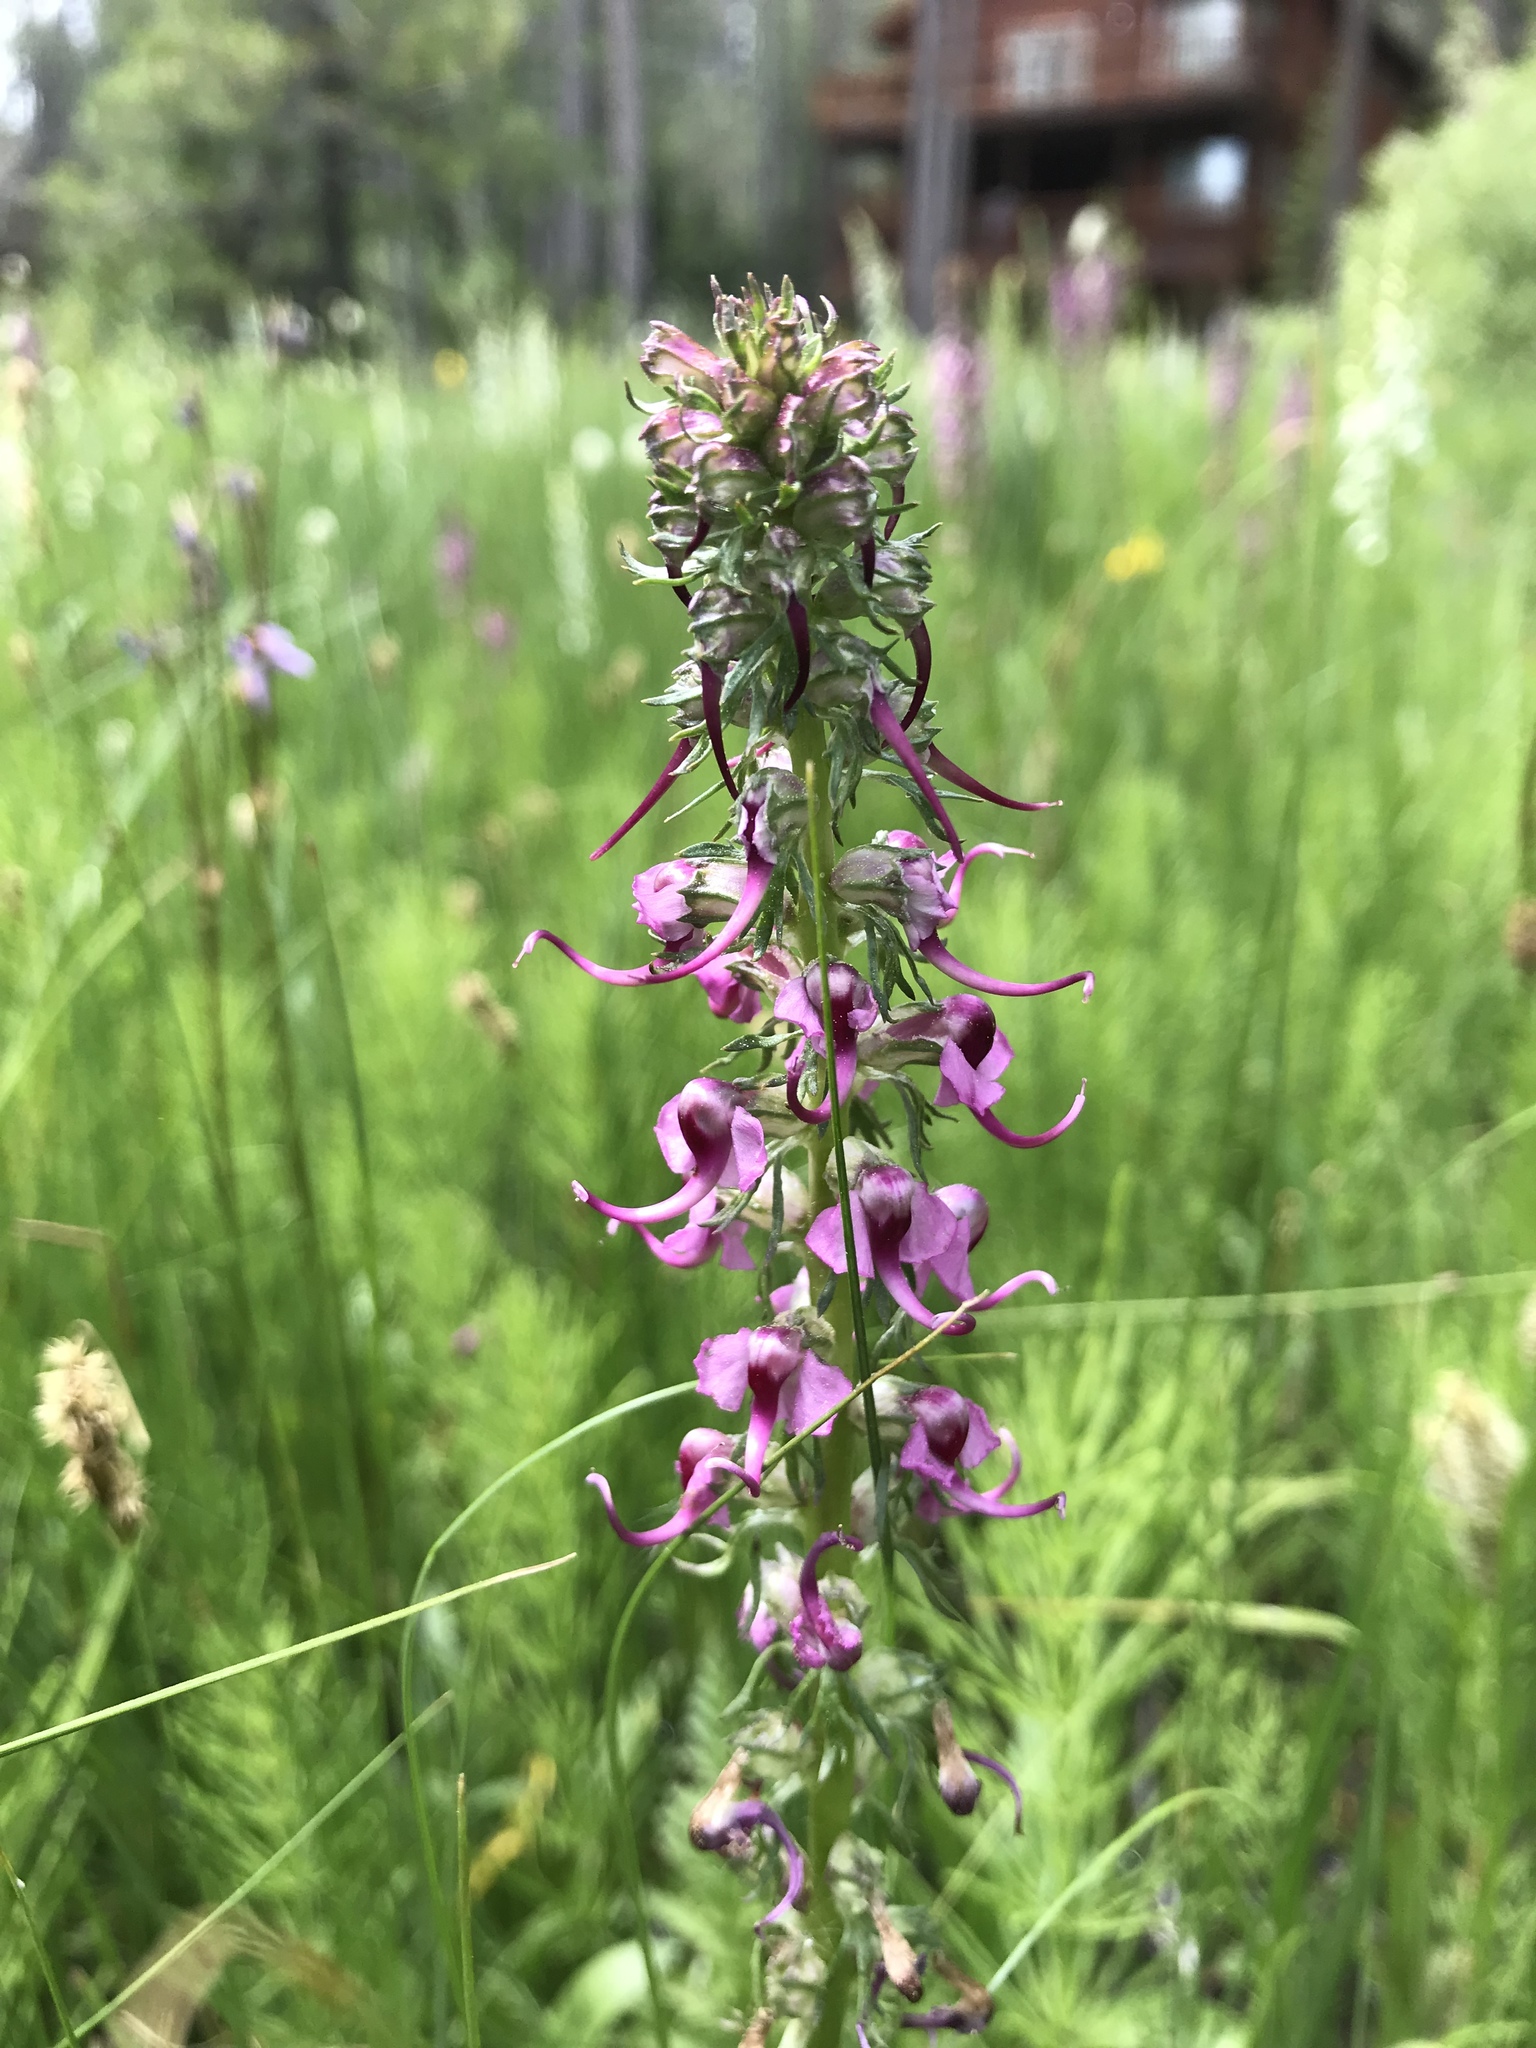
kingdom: Plantae
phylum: Tracheophyta
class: Magnoliopsida
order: Lamiales
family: Orobanchaceae
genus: Pedicularis
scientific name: Pedicularis groenlandica
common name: Elephant's-head
